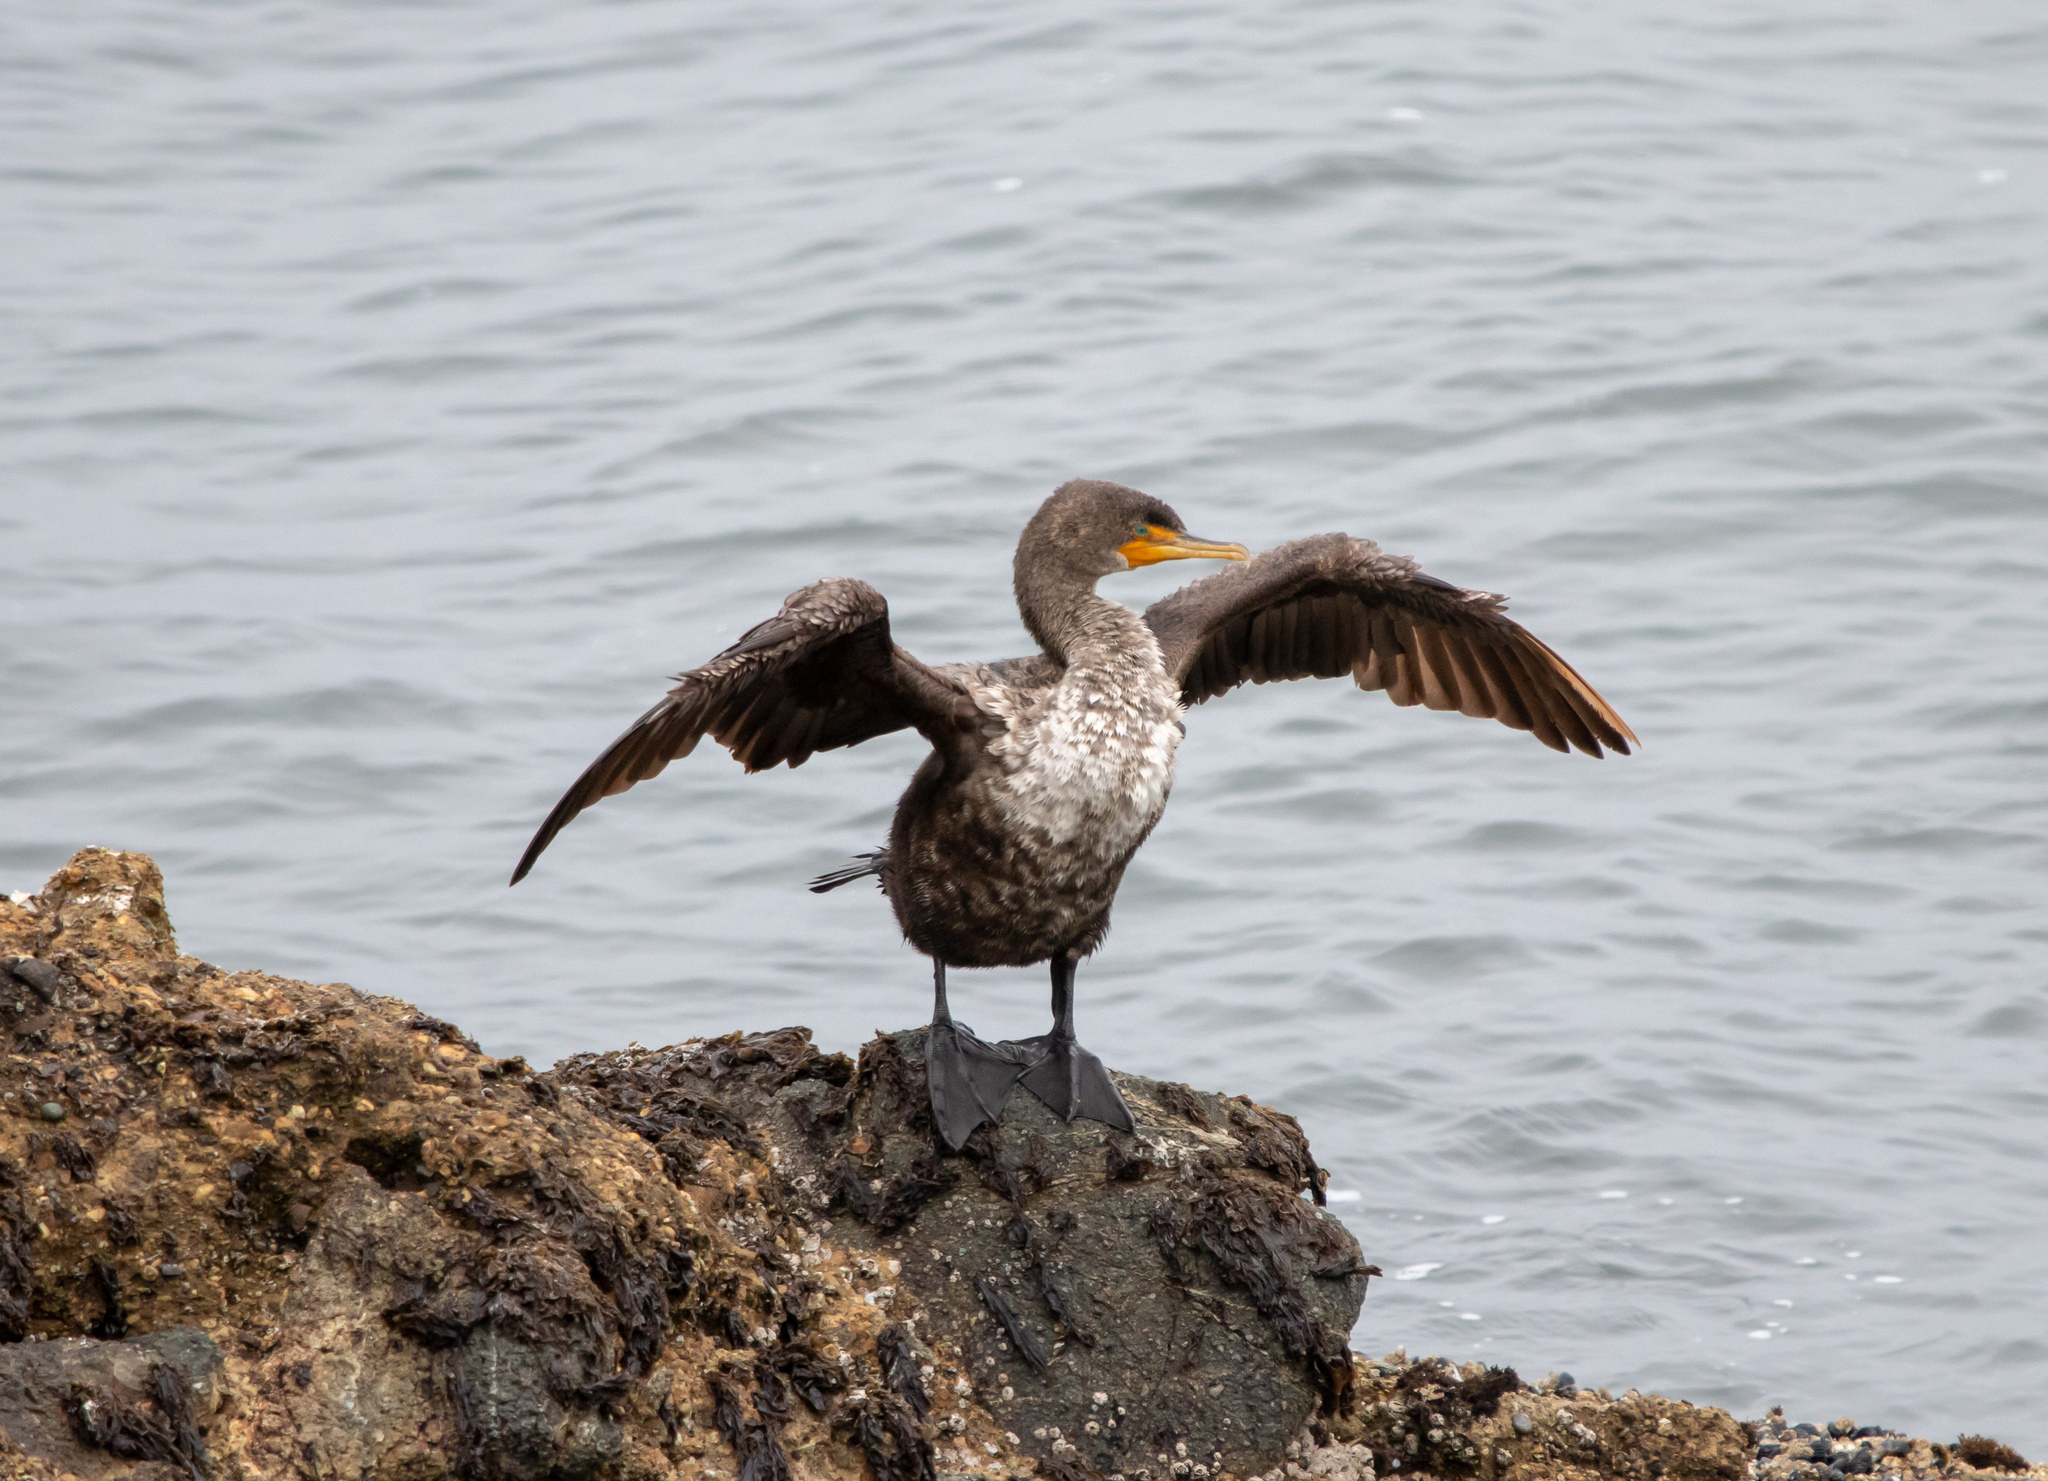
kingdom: Animalia
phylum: Chordata
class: Aves
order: Suliformes
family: Phalacrocoracidae
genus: Phalacrocorax
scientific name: Phalacrocorax auritus
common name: Double-crested cormorant
